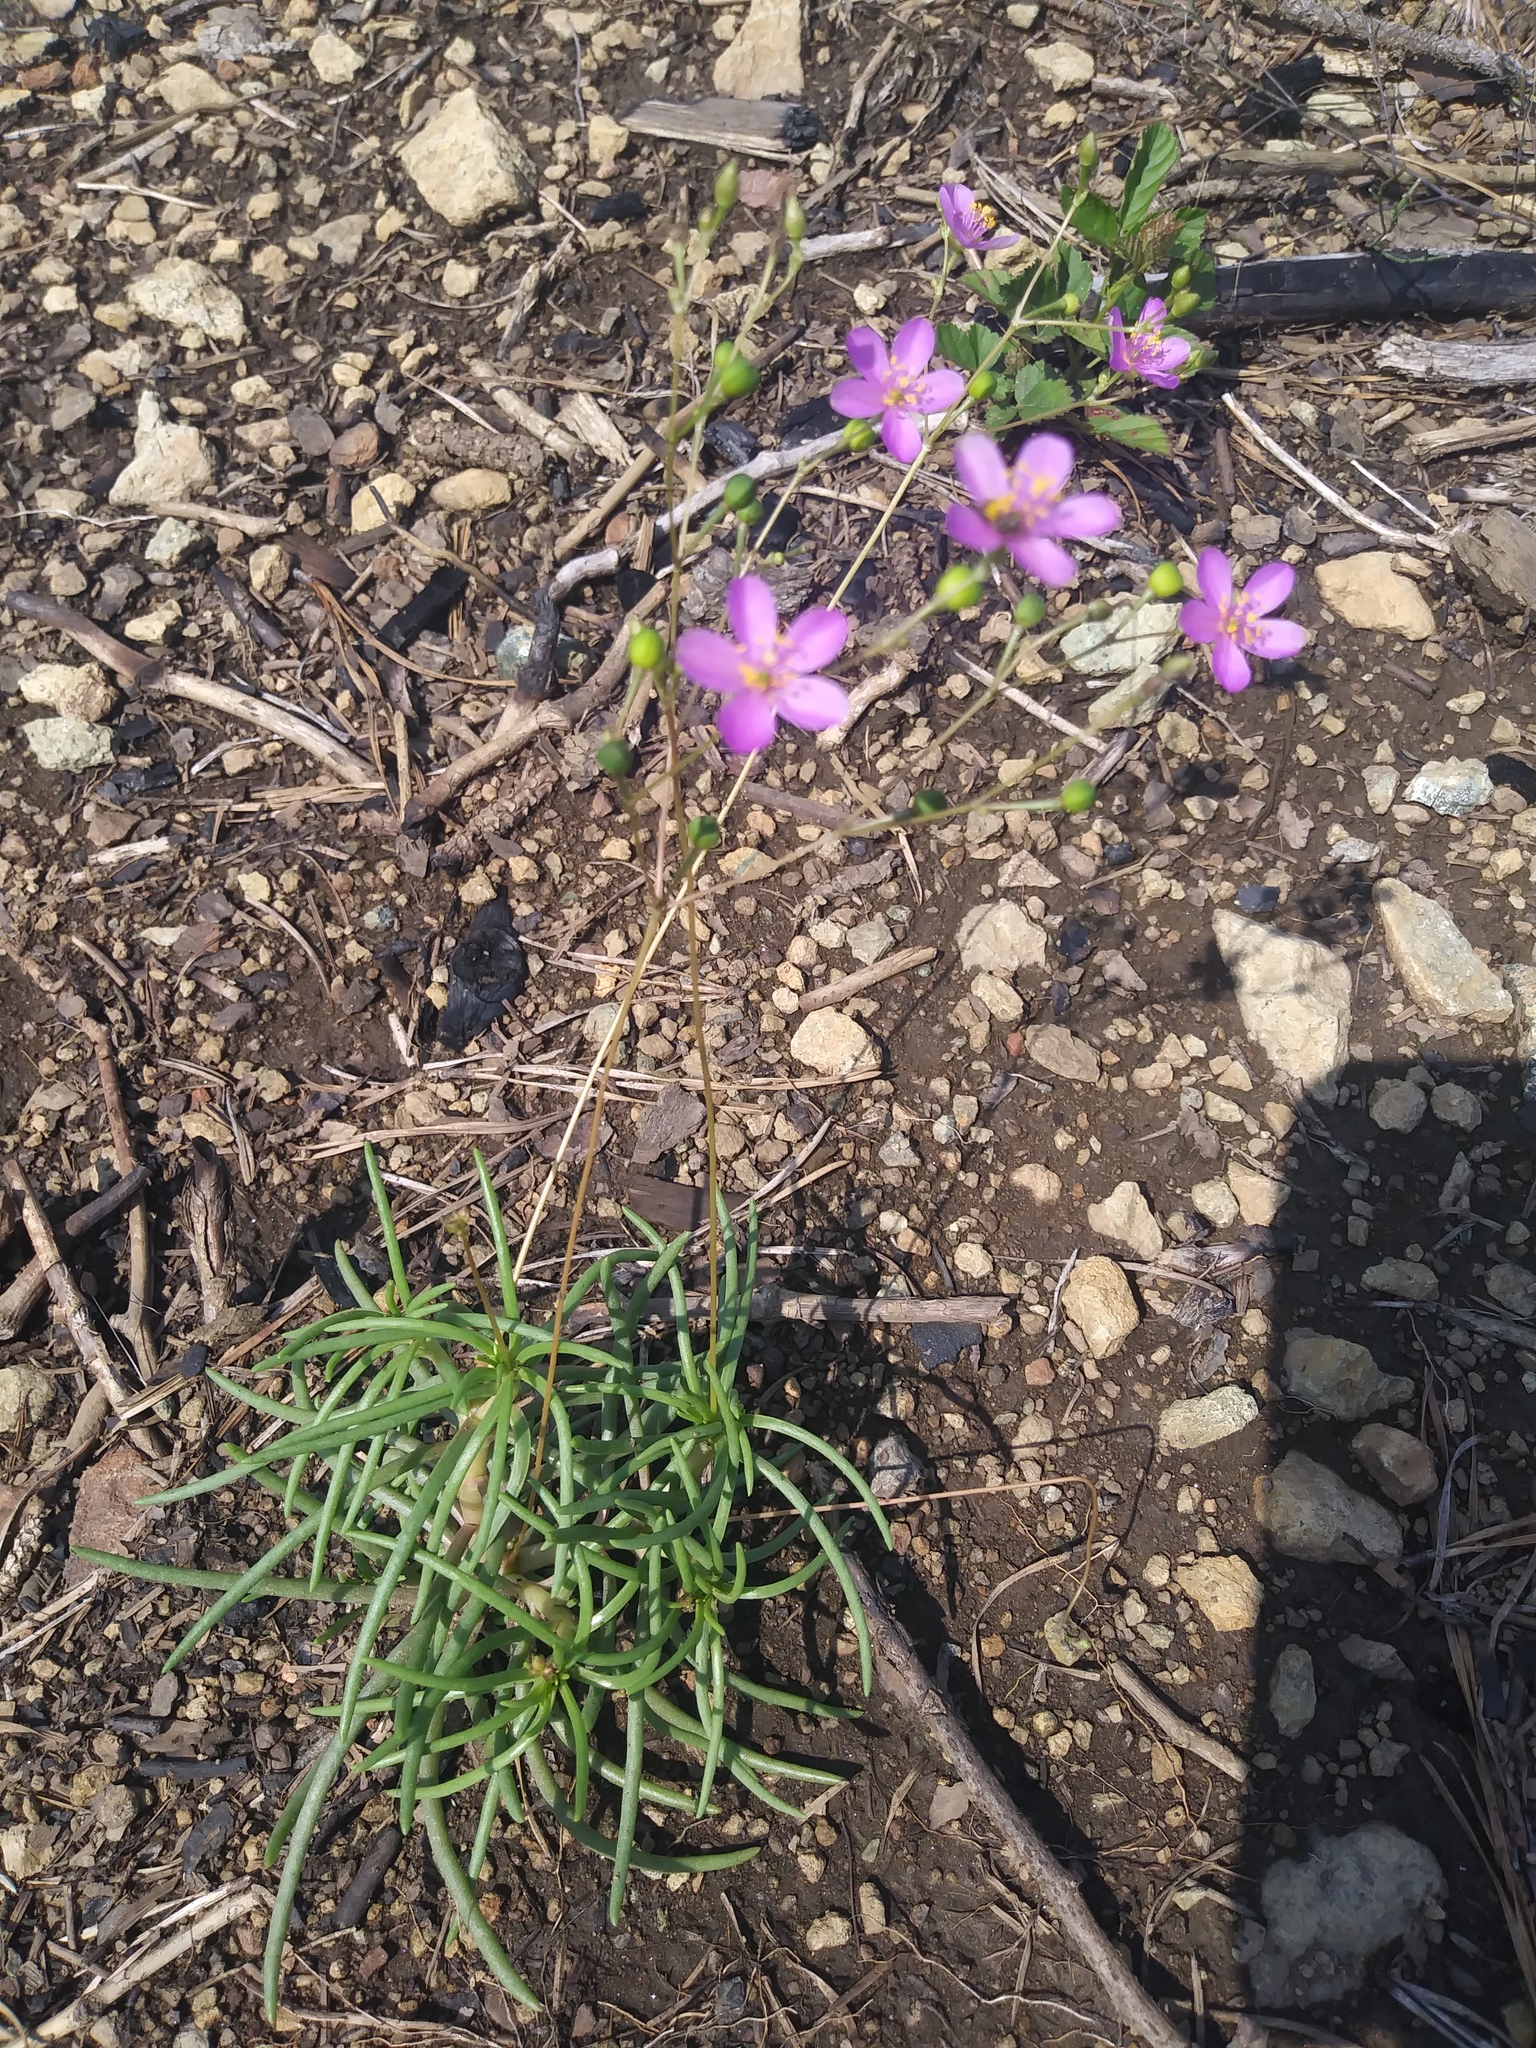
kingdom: Plantae
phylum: Tracheophyta
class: Magnoliopsida
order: Caryophyllales
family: Montiaceae
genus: Phemeranthus
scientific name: Phemeranthus teretifolius
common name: Quill fameflower
